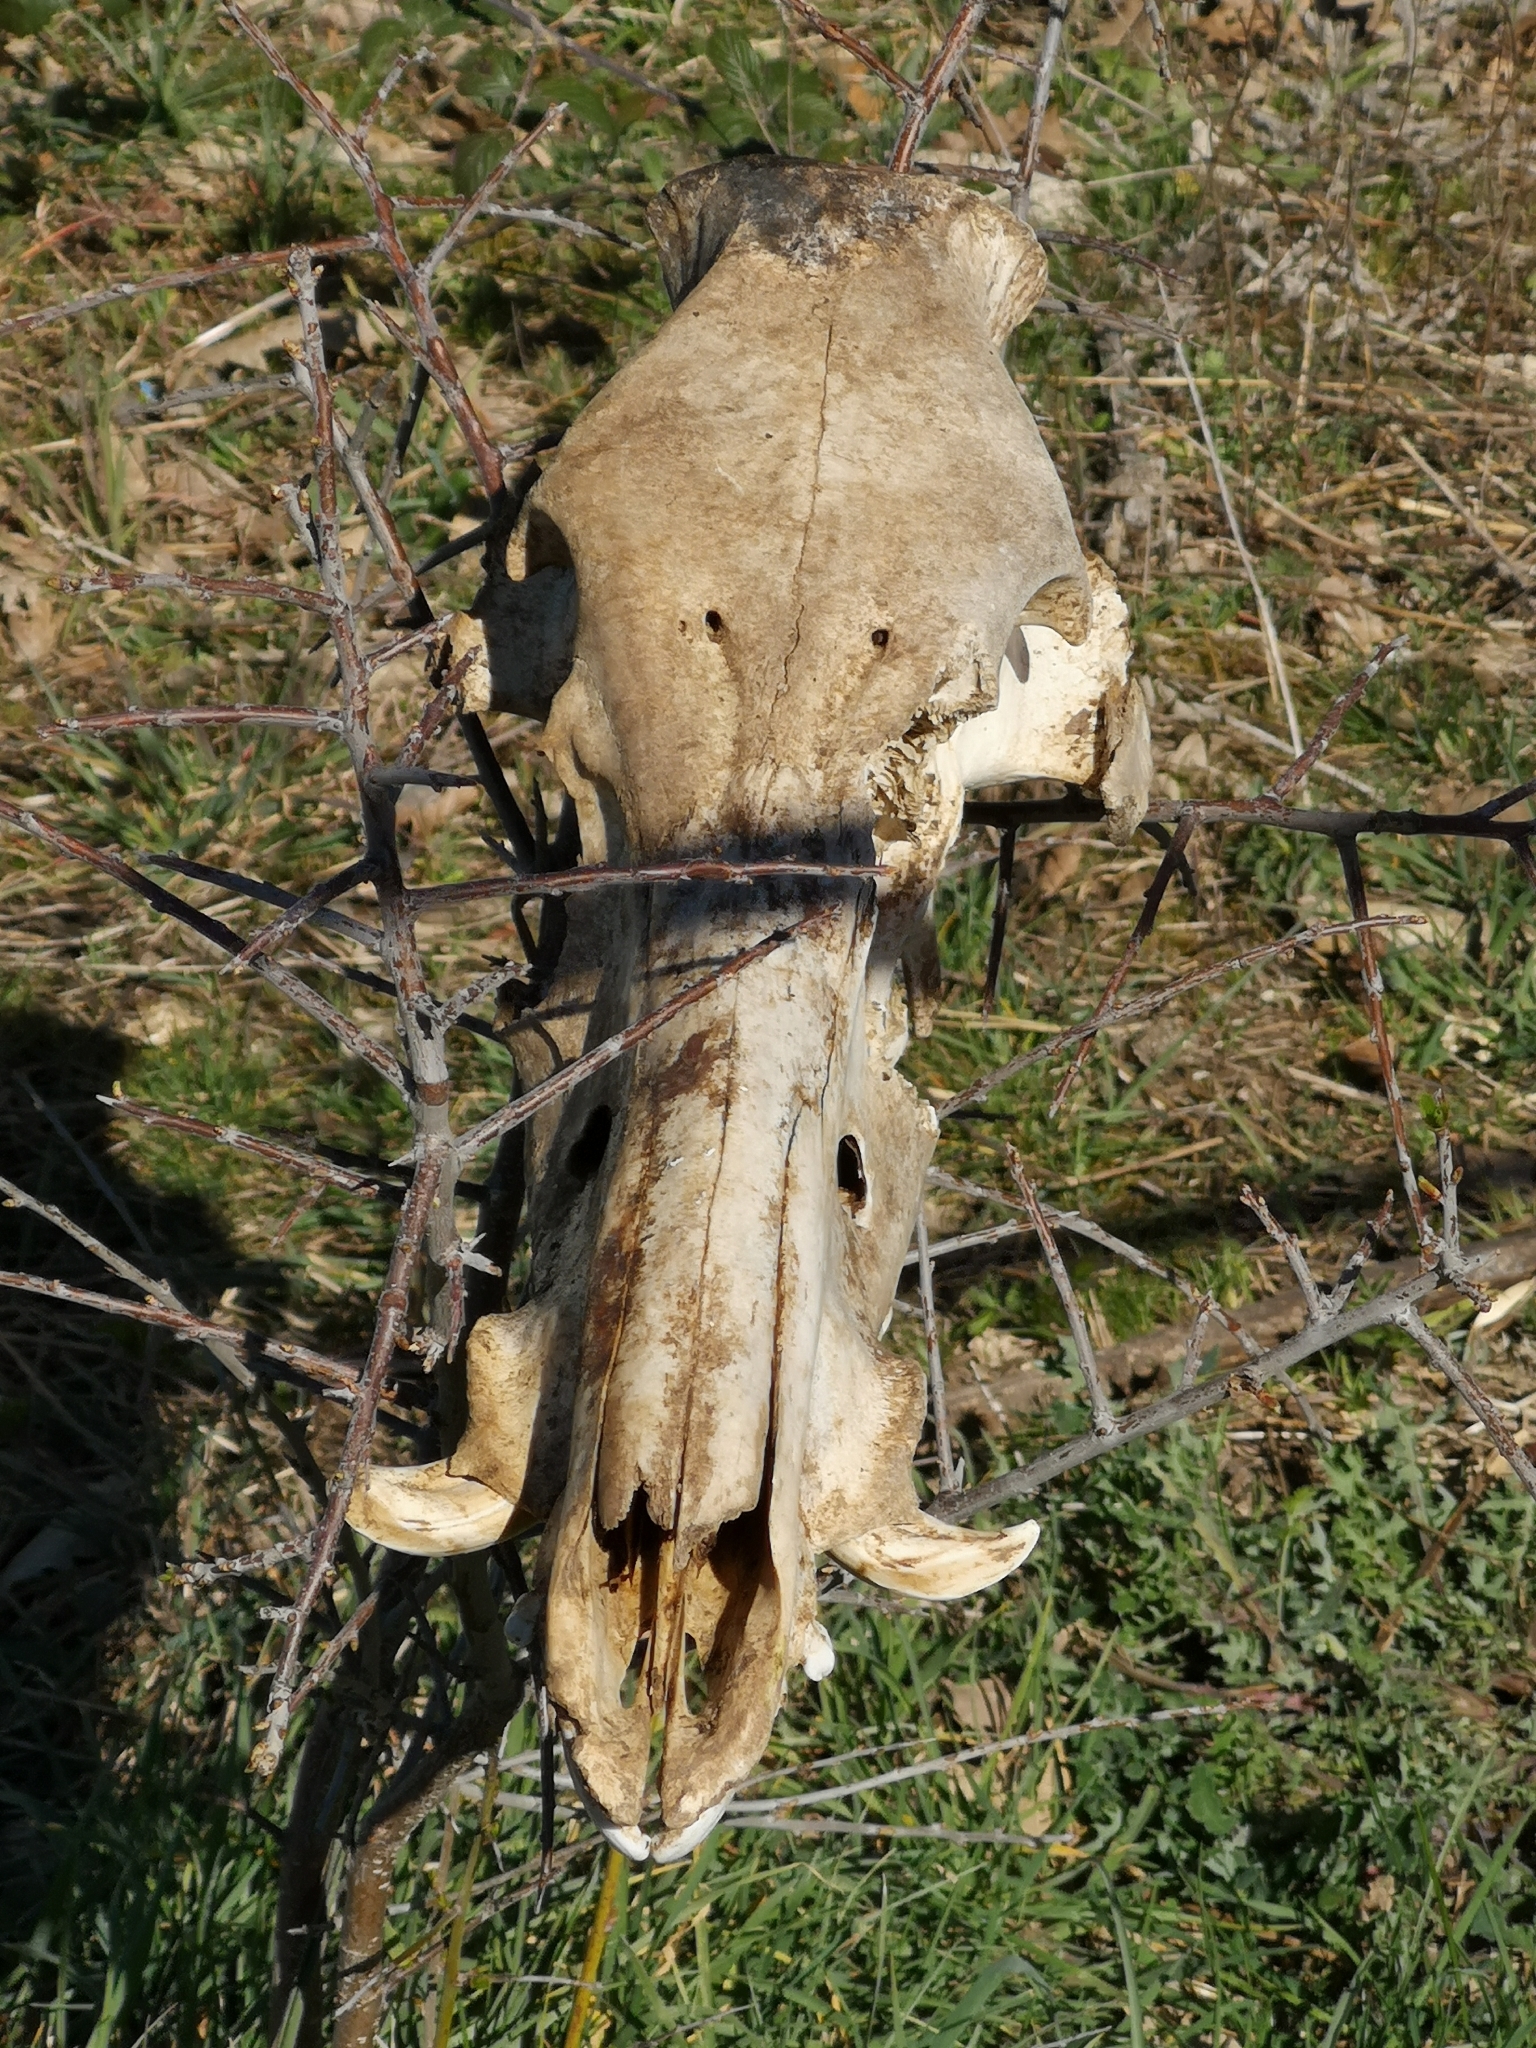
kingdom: Animalia
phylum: Chordata
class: Mammalia
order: Artiodactyla
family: Suidae
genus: Sus
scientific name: Sus scrofa
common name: Wild boar
